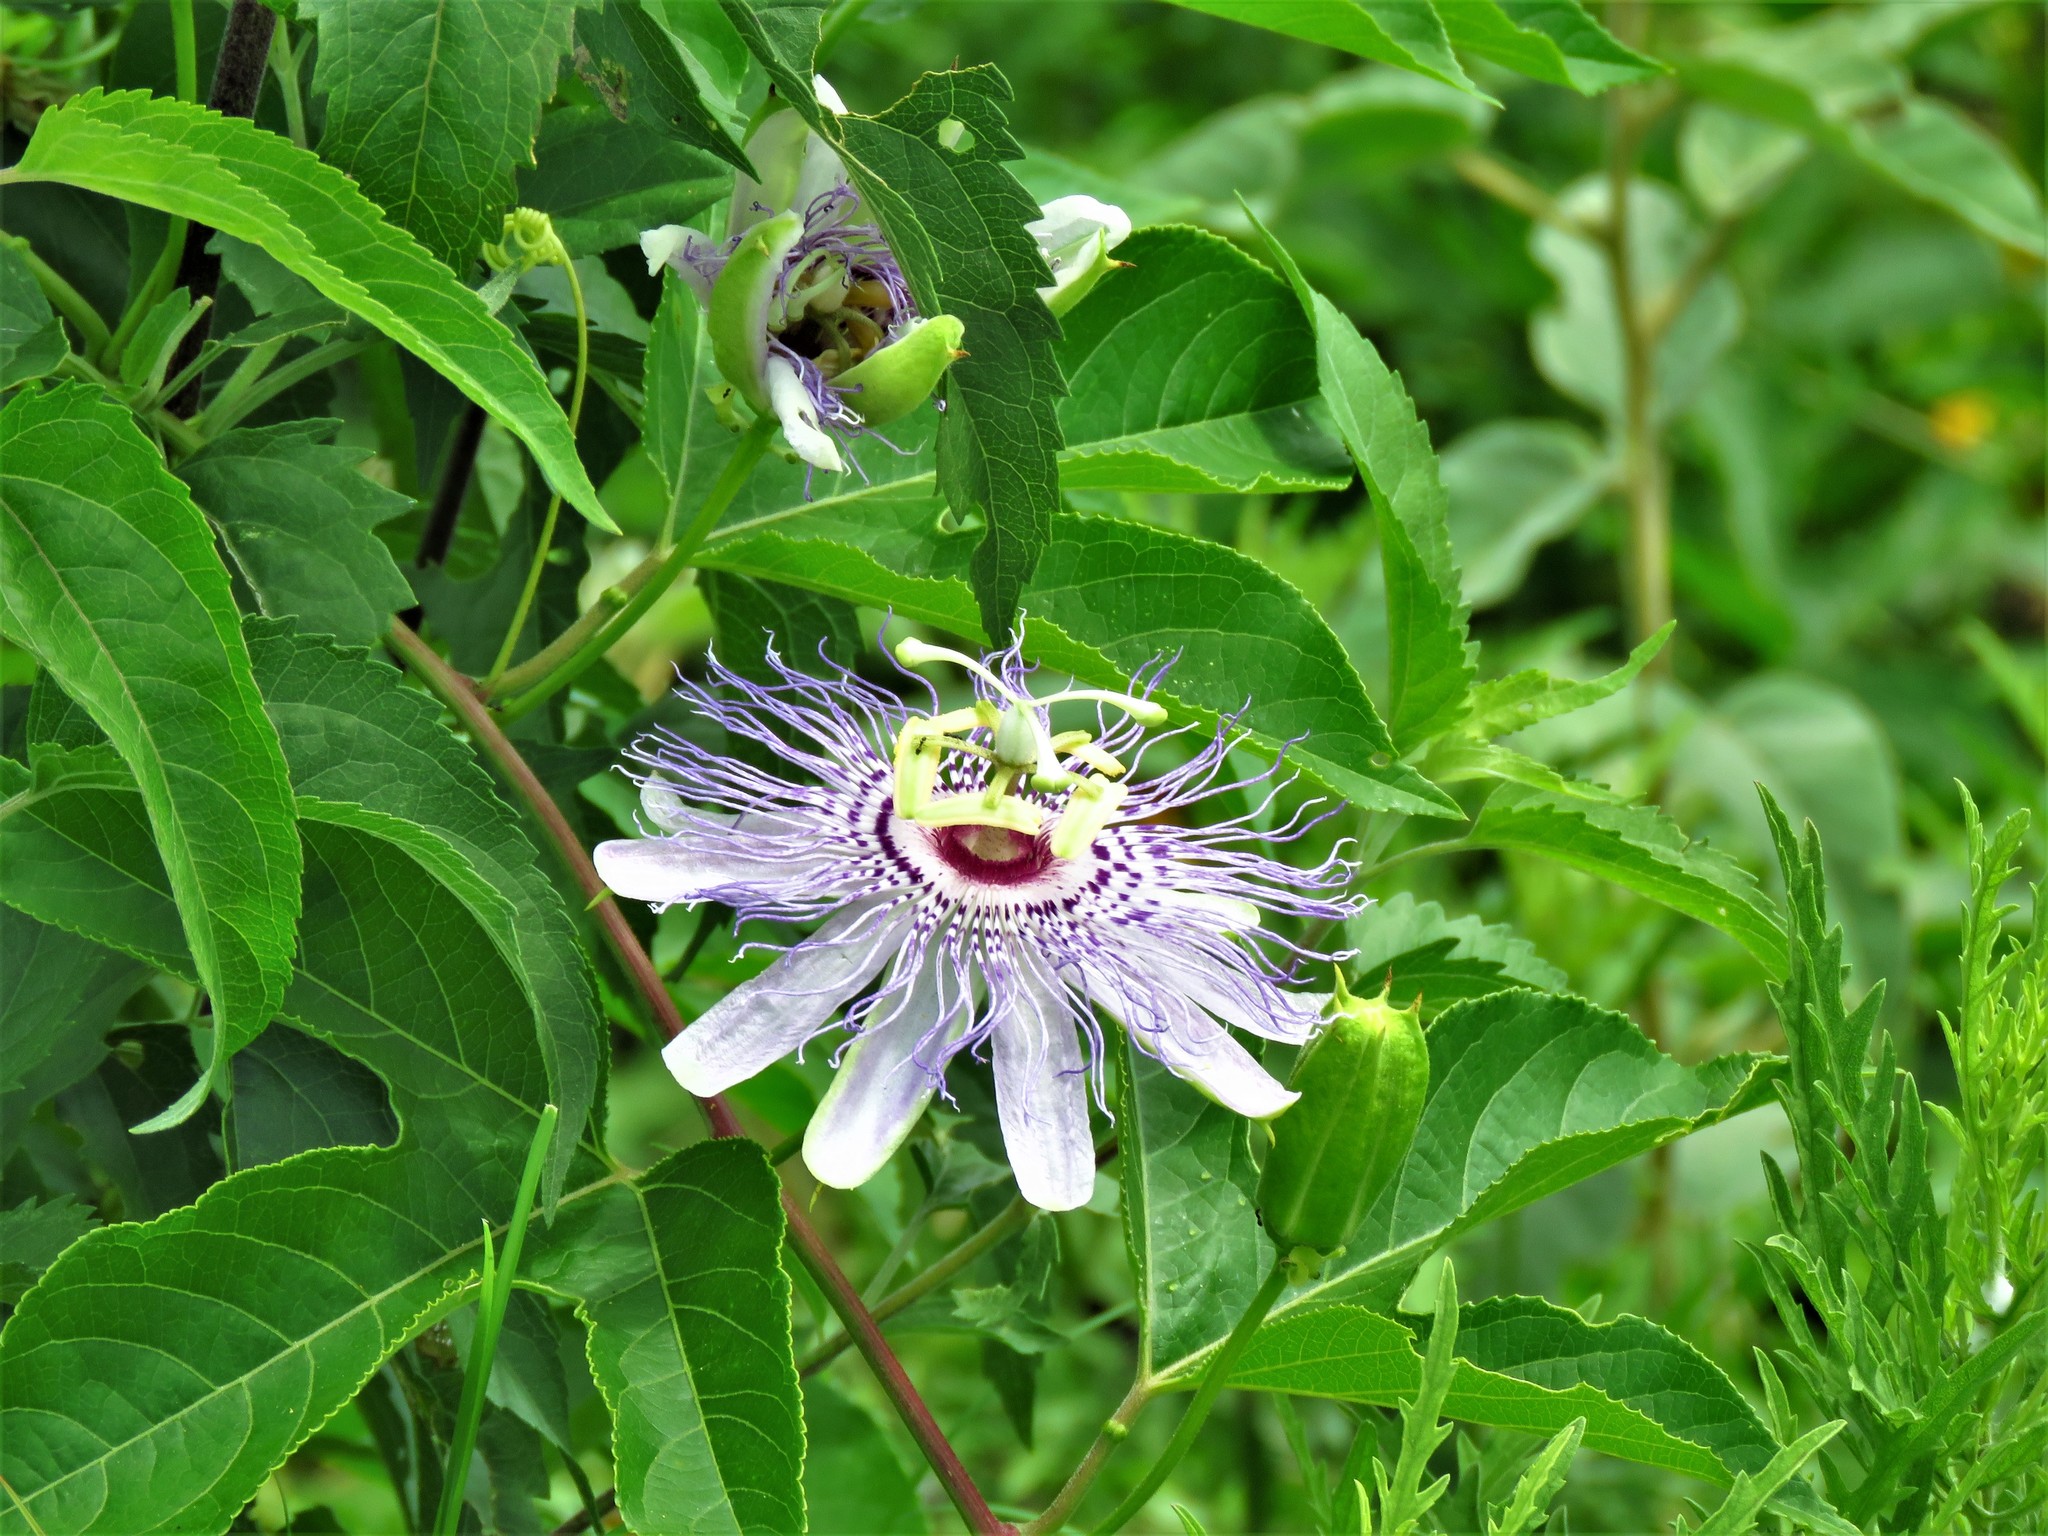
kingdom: Plantae
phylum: Tracheophyta
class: Magnoliopsida
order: Malpighiales
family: Passifloraceae
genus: Passiflora
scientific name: Passiflora incarnata
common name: Apricot-vine
